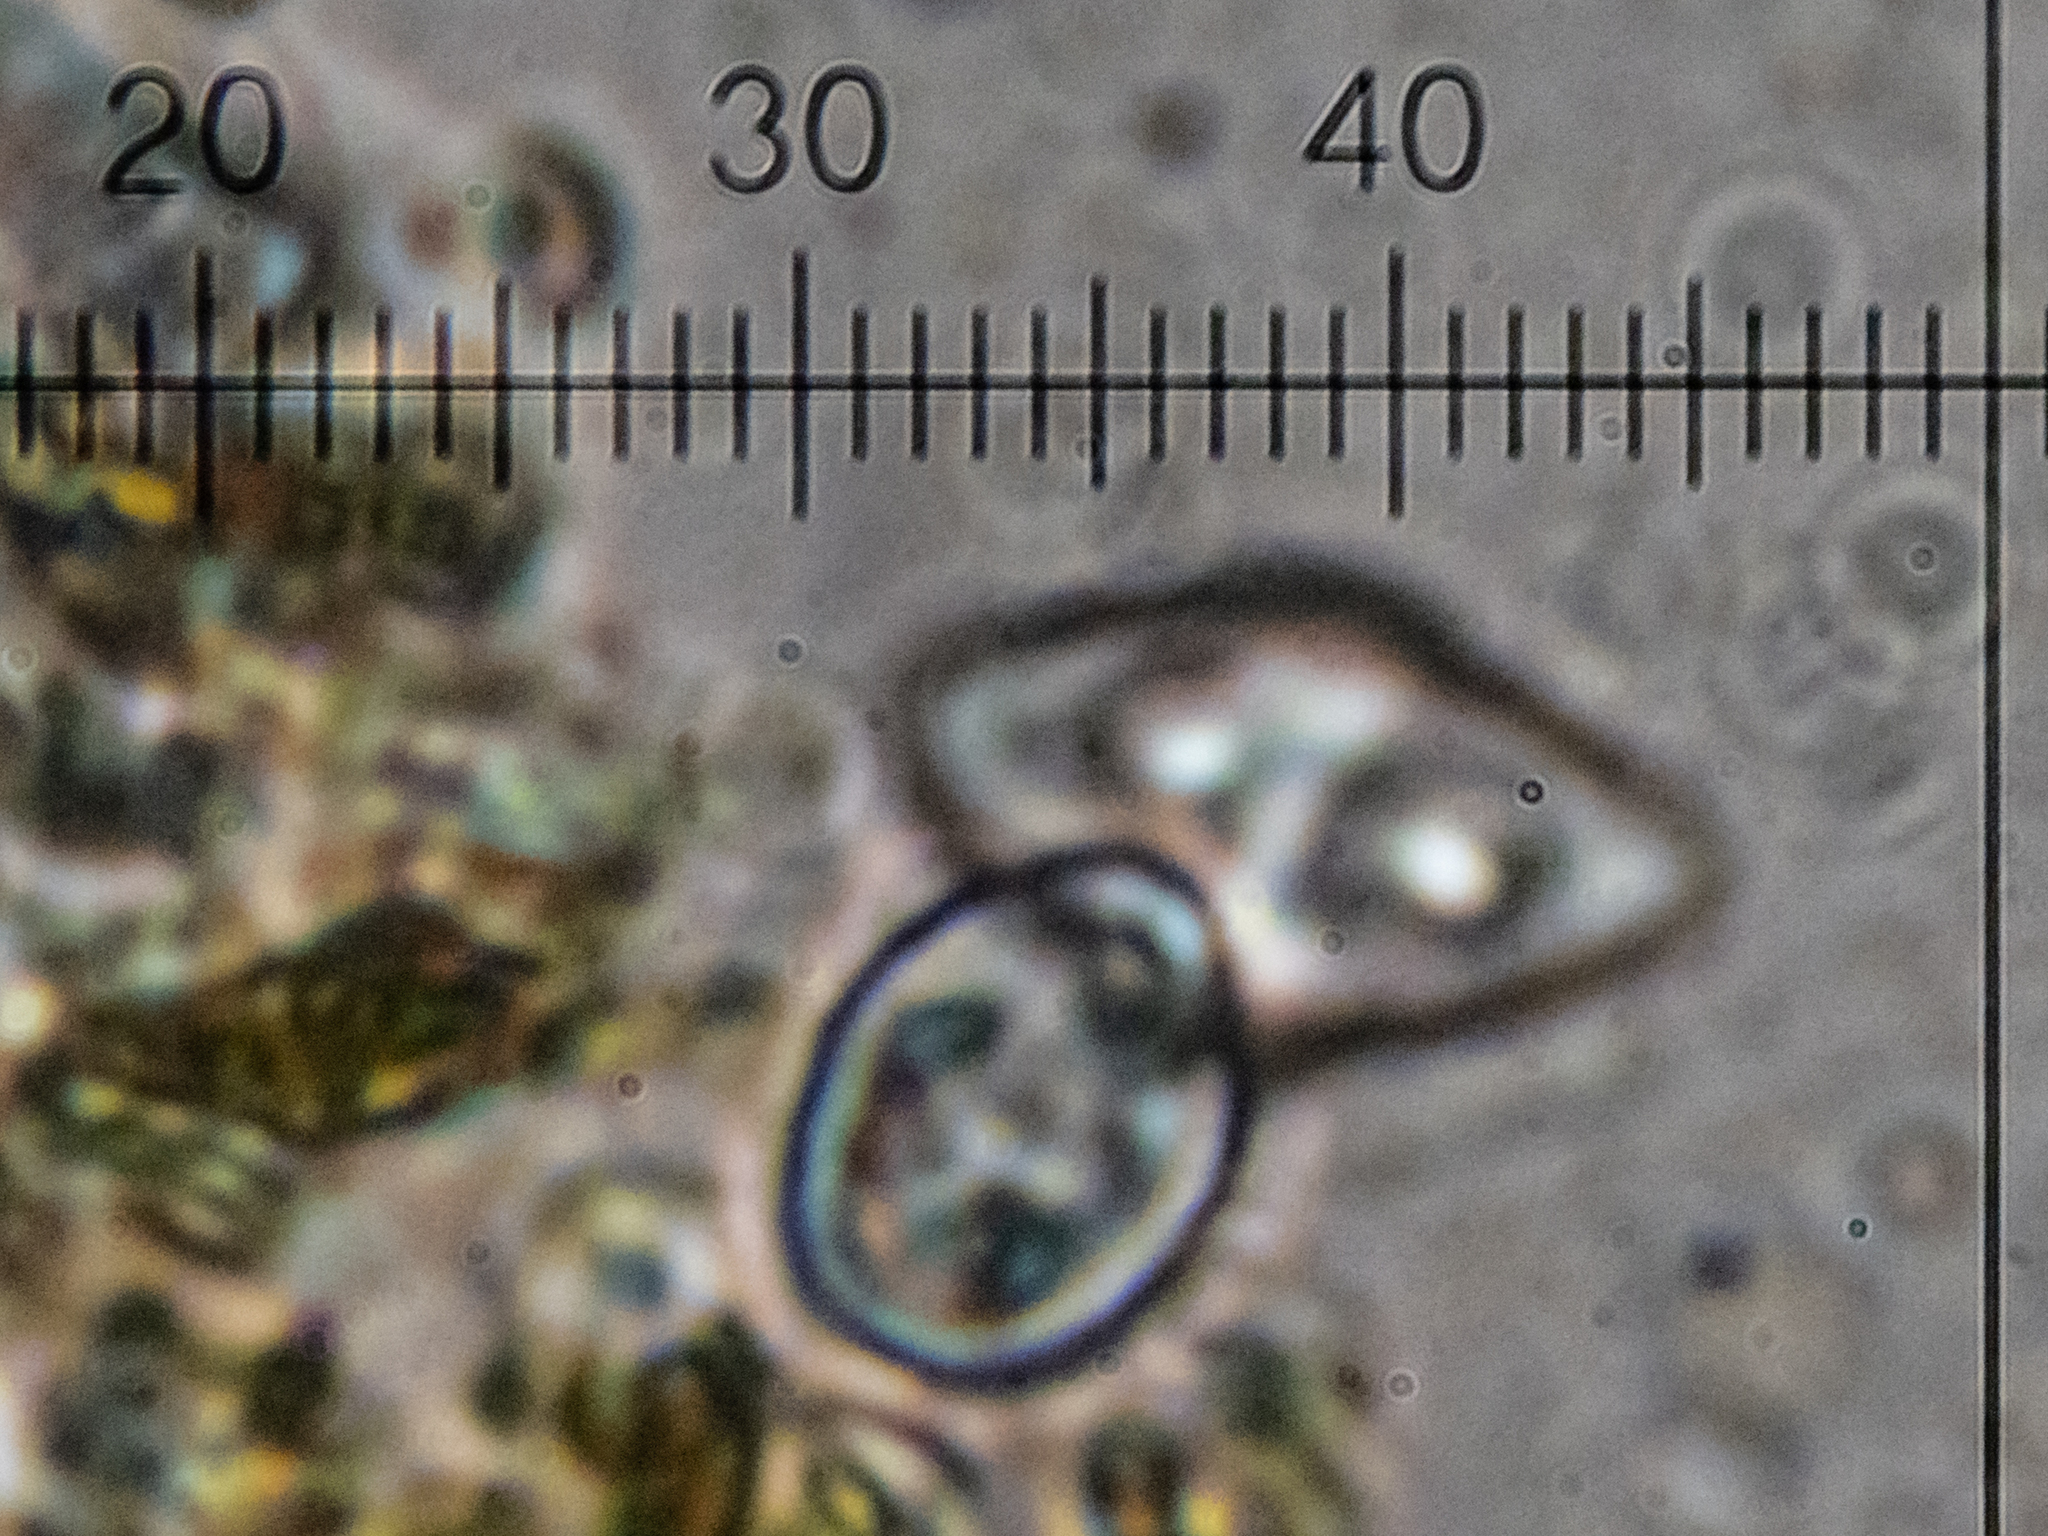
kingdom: Fungi
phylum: Ascomycota
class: Lecanoromycetes
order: Teloschistales
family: Teloschistaceae
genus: Variospora
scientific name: Variospora aurantia
